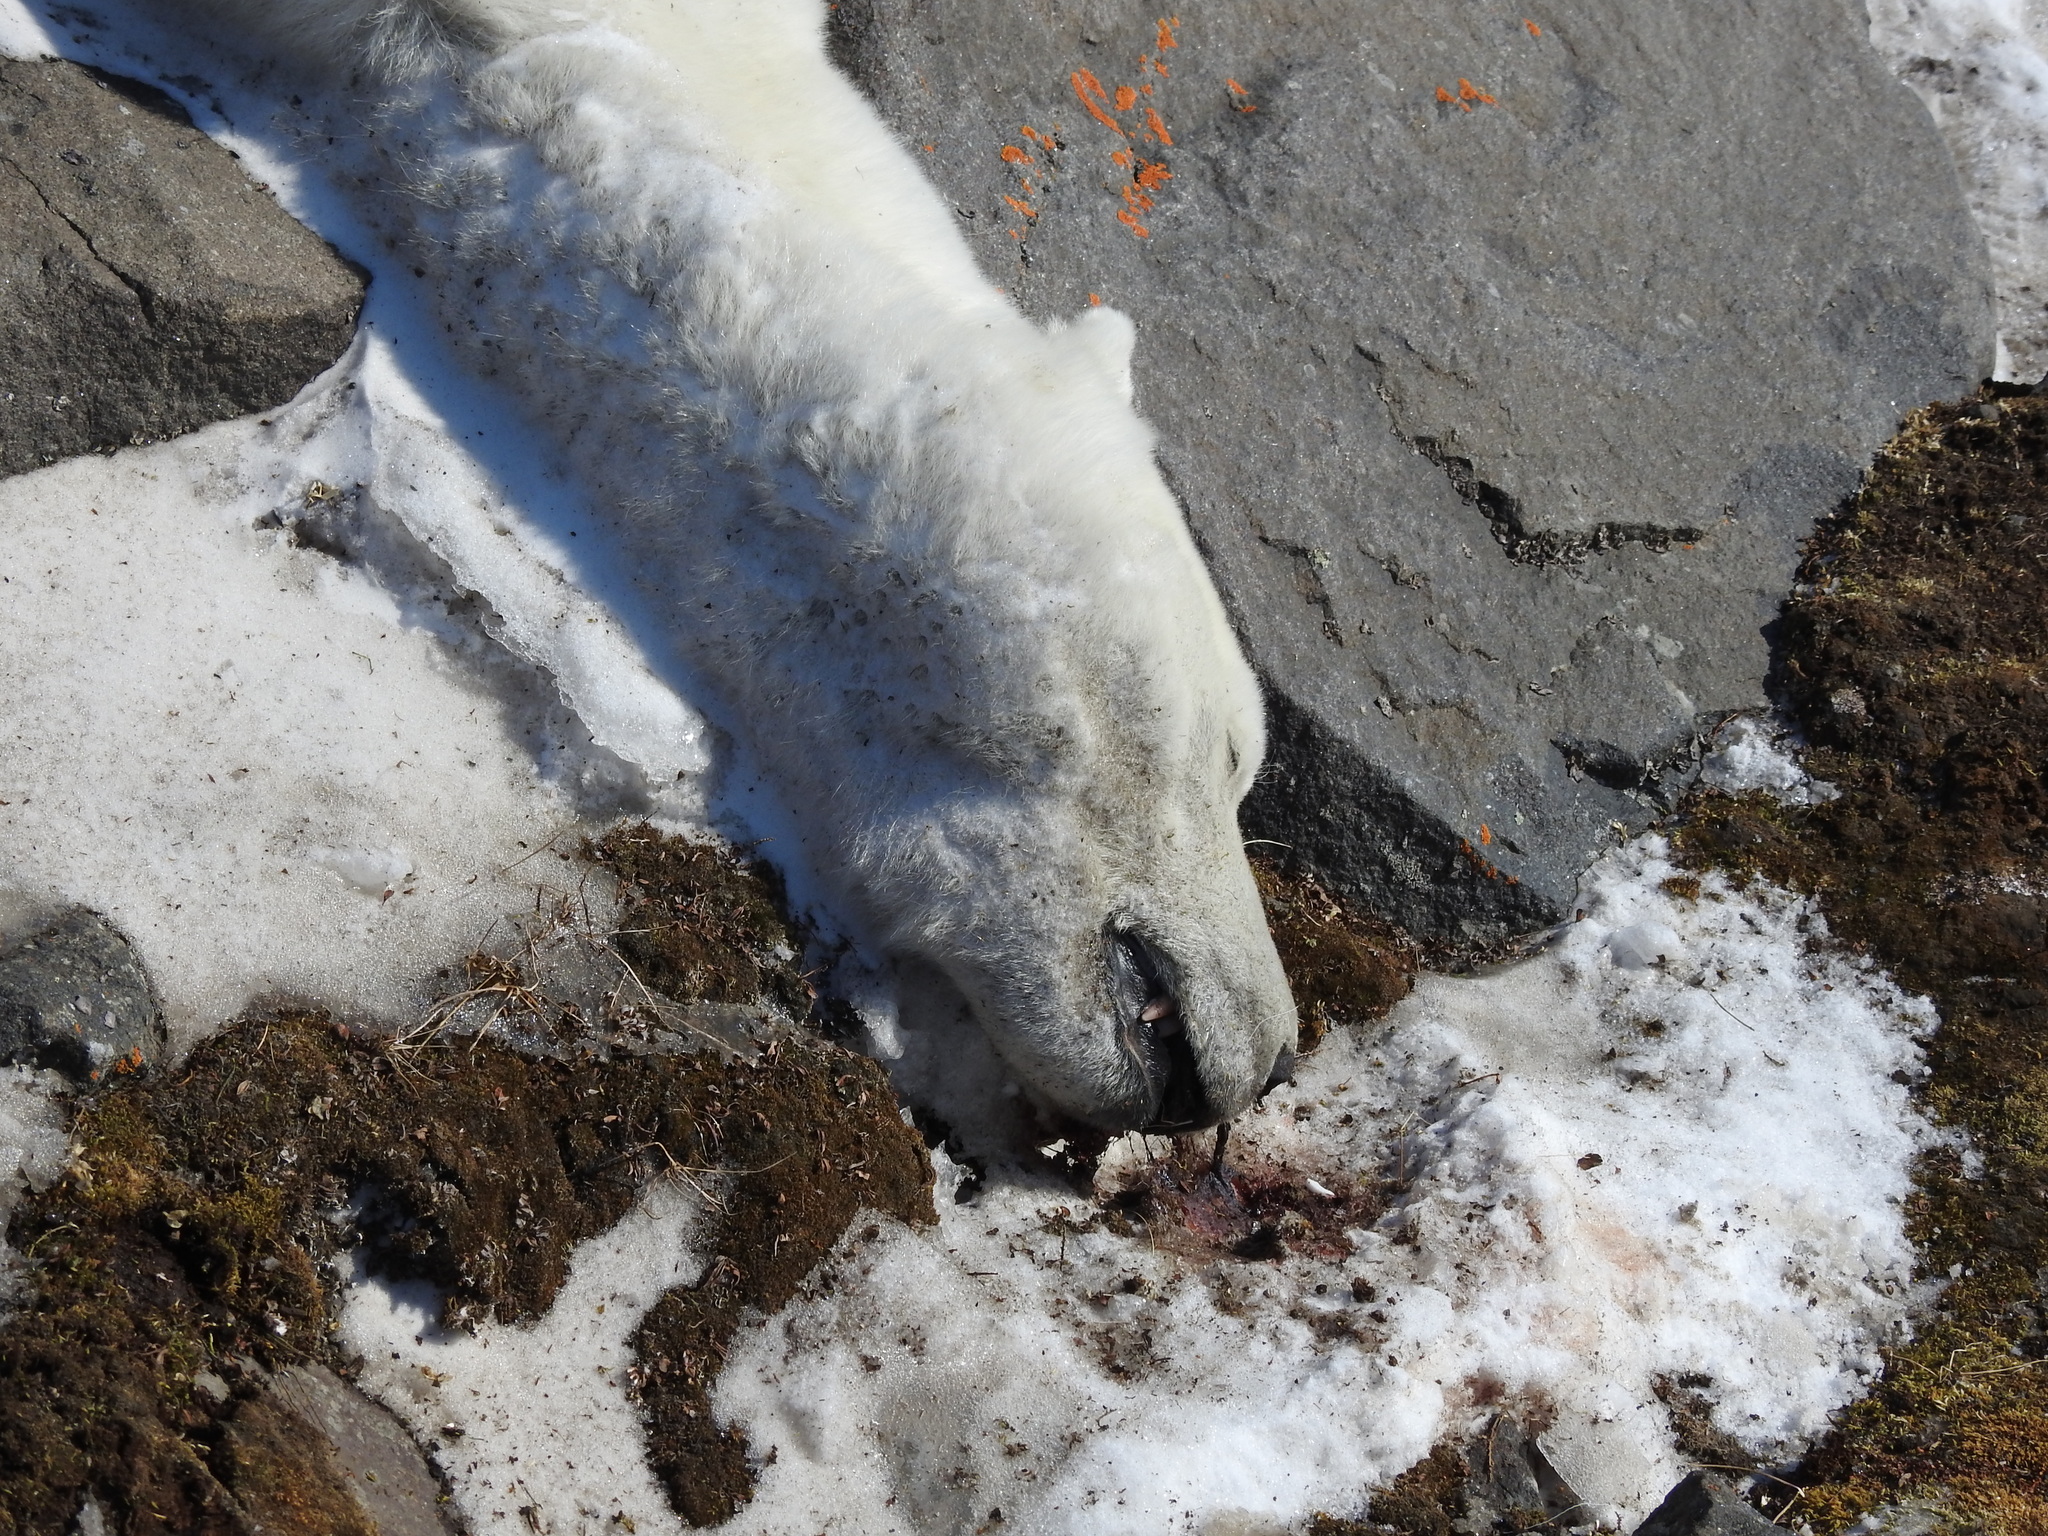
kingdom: Animalia
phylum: Chordata
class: Mammalia
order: Carnivora
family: Ursidae
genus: Ursus
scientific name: Ursus maritimus
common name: Polar bear
